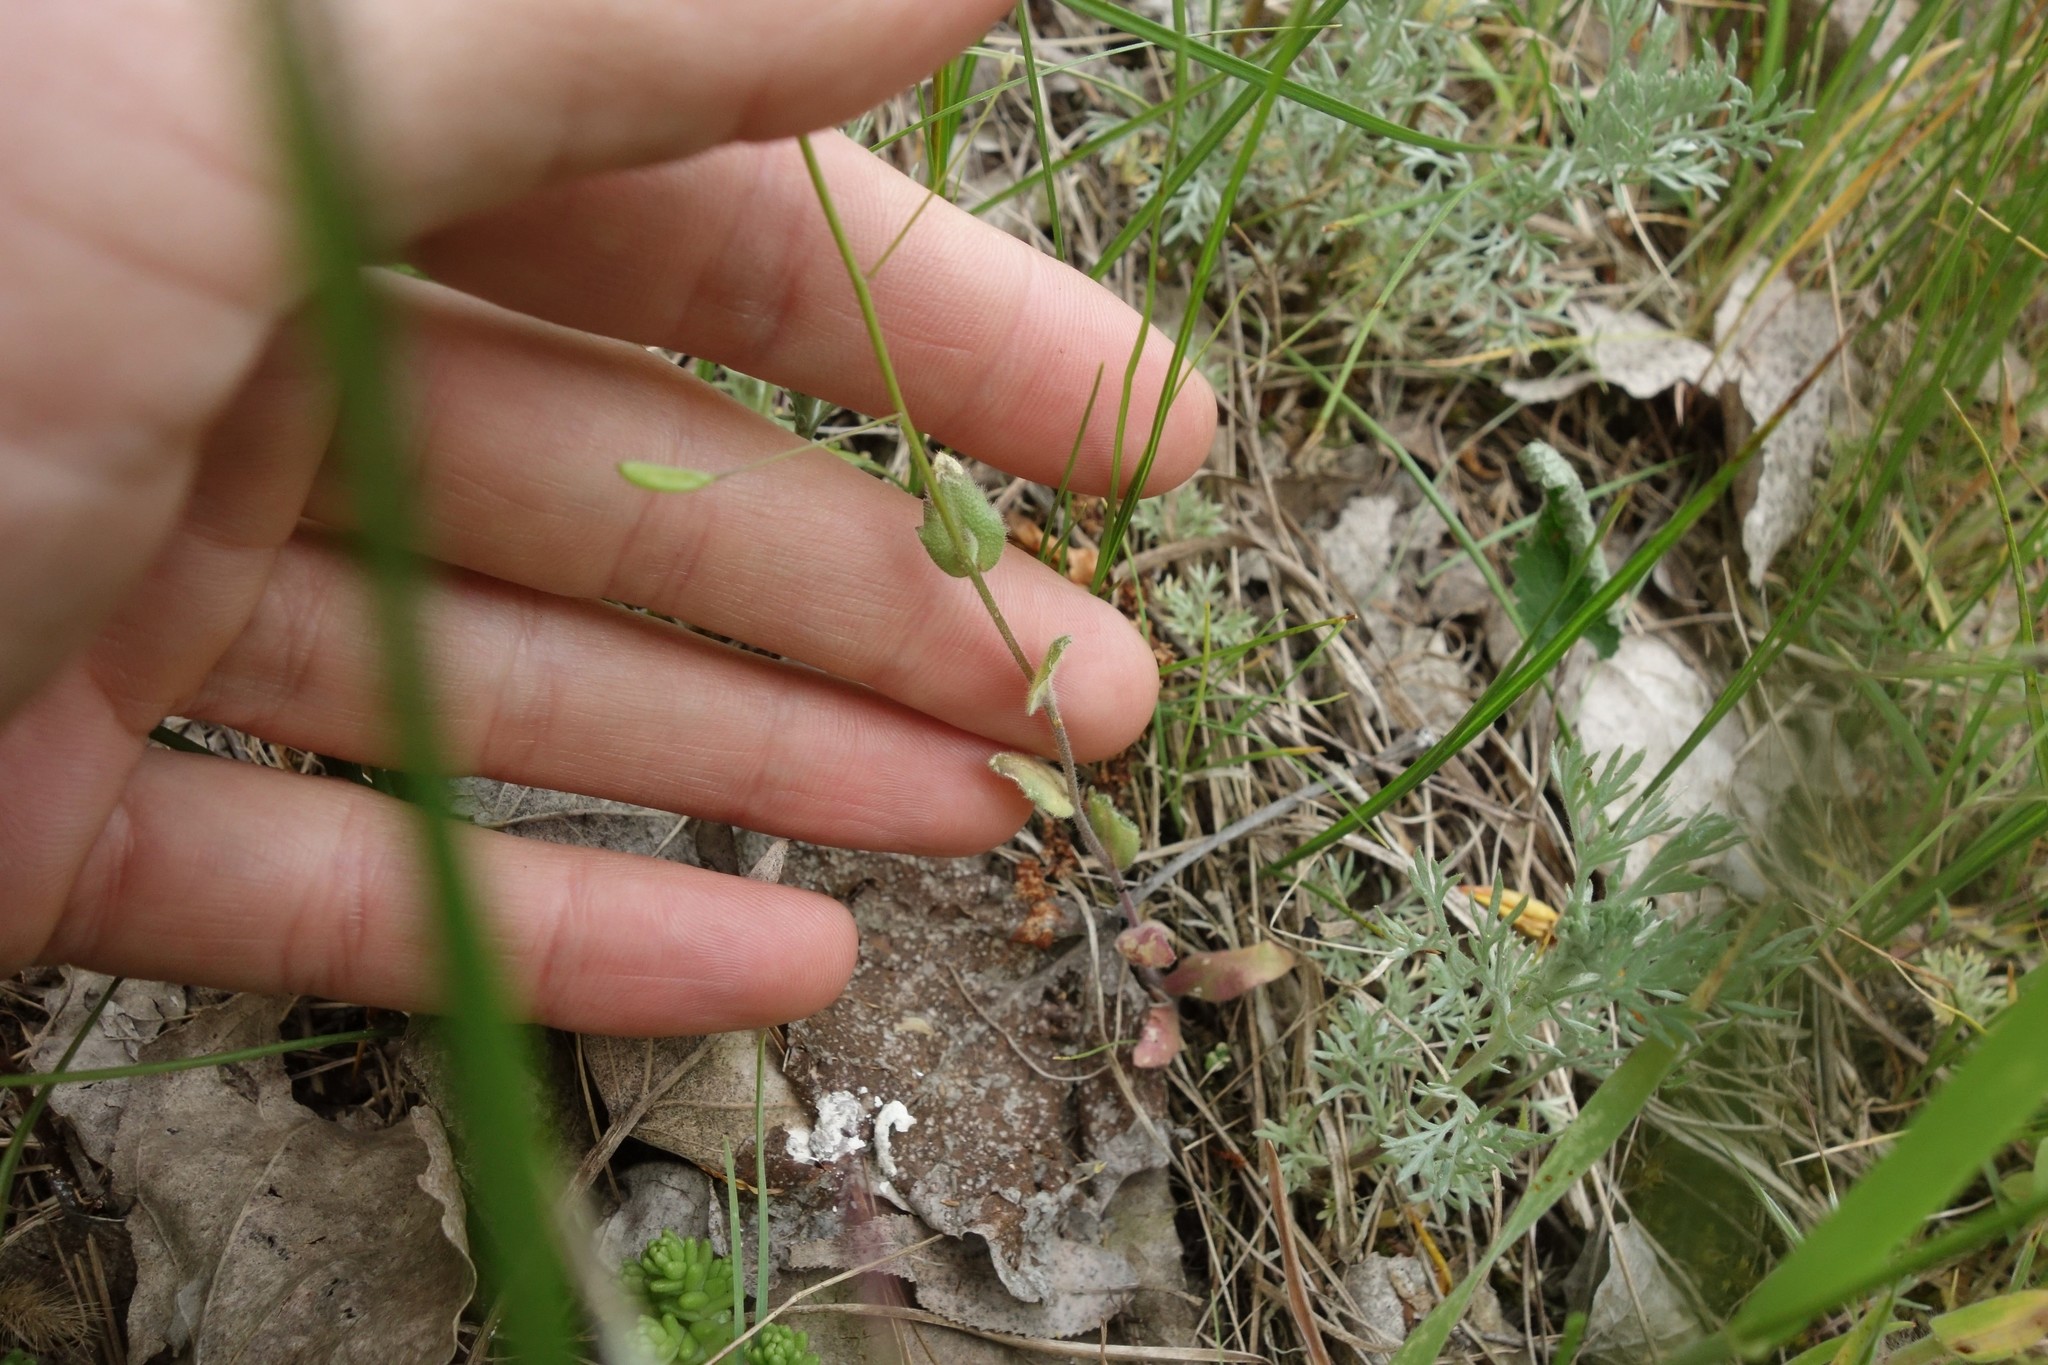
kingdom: Plantae
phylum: Tracheophyta
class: Magnoliopsida
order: Brassicales
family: Brassicaceae
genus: Draba
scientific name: Draba nemorosa
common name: Wood whitlow-grass
